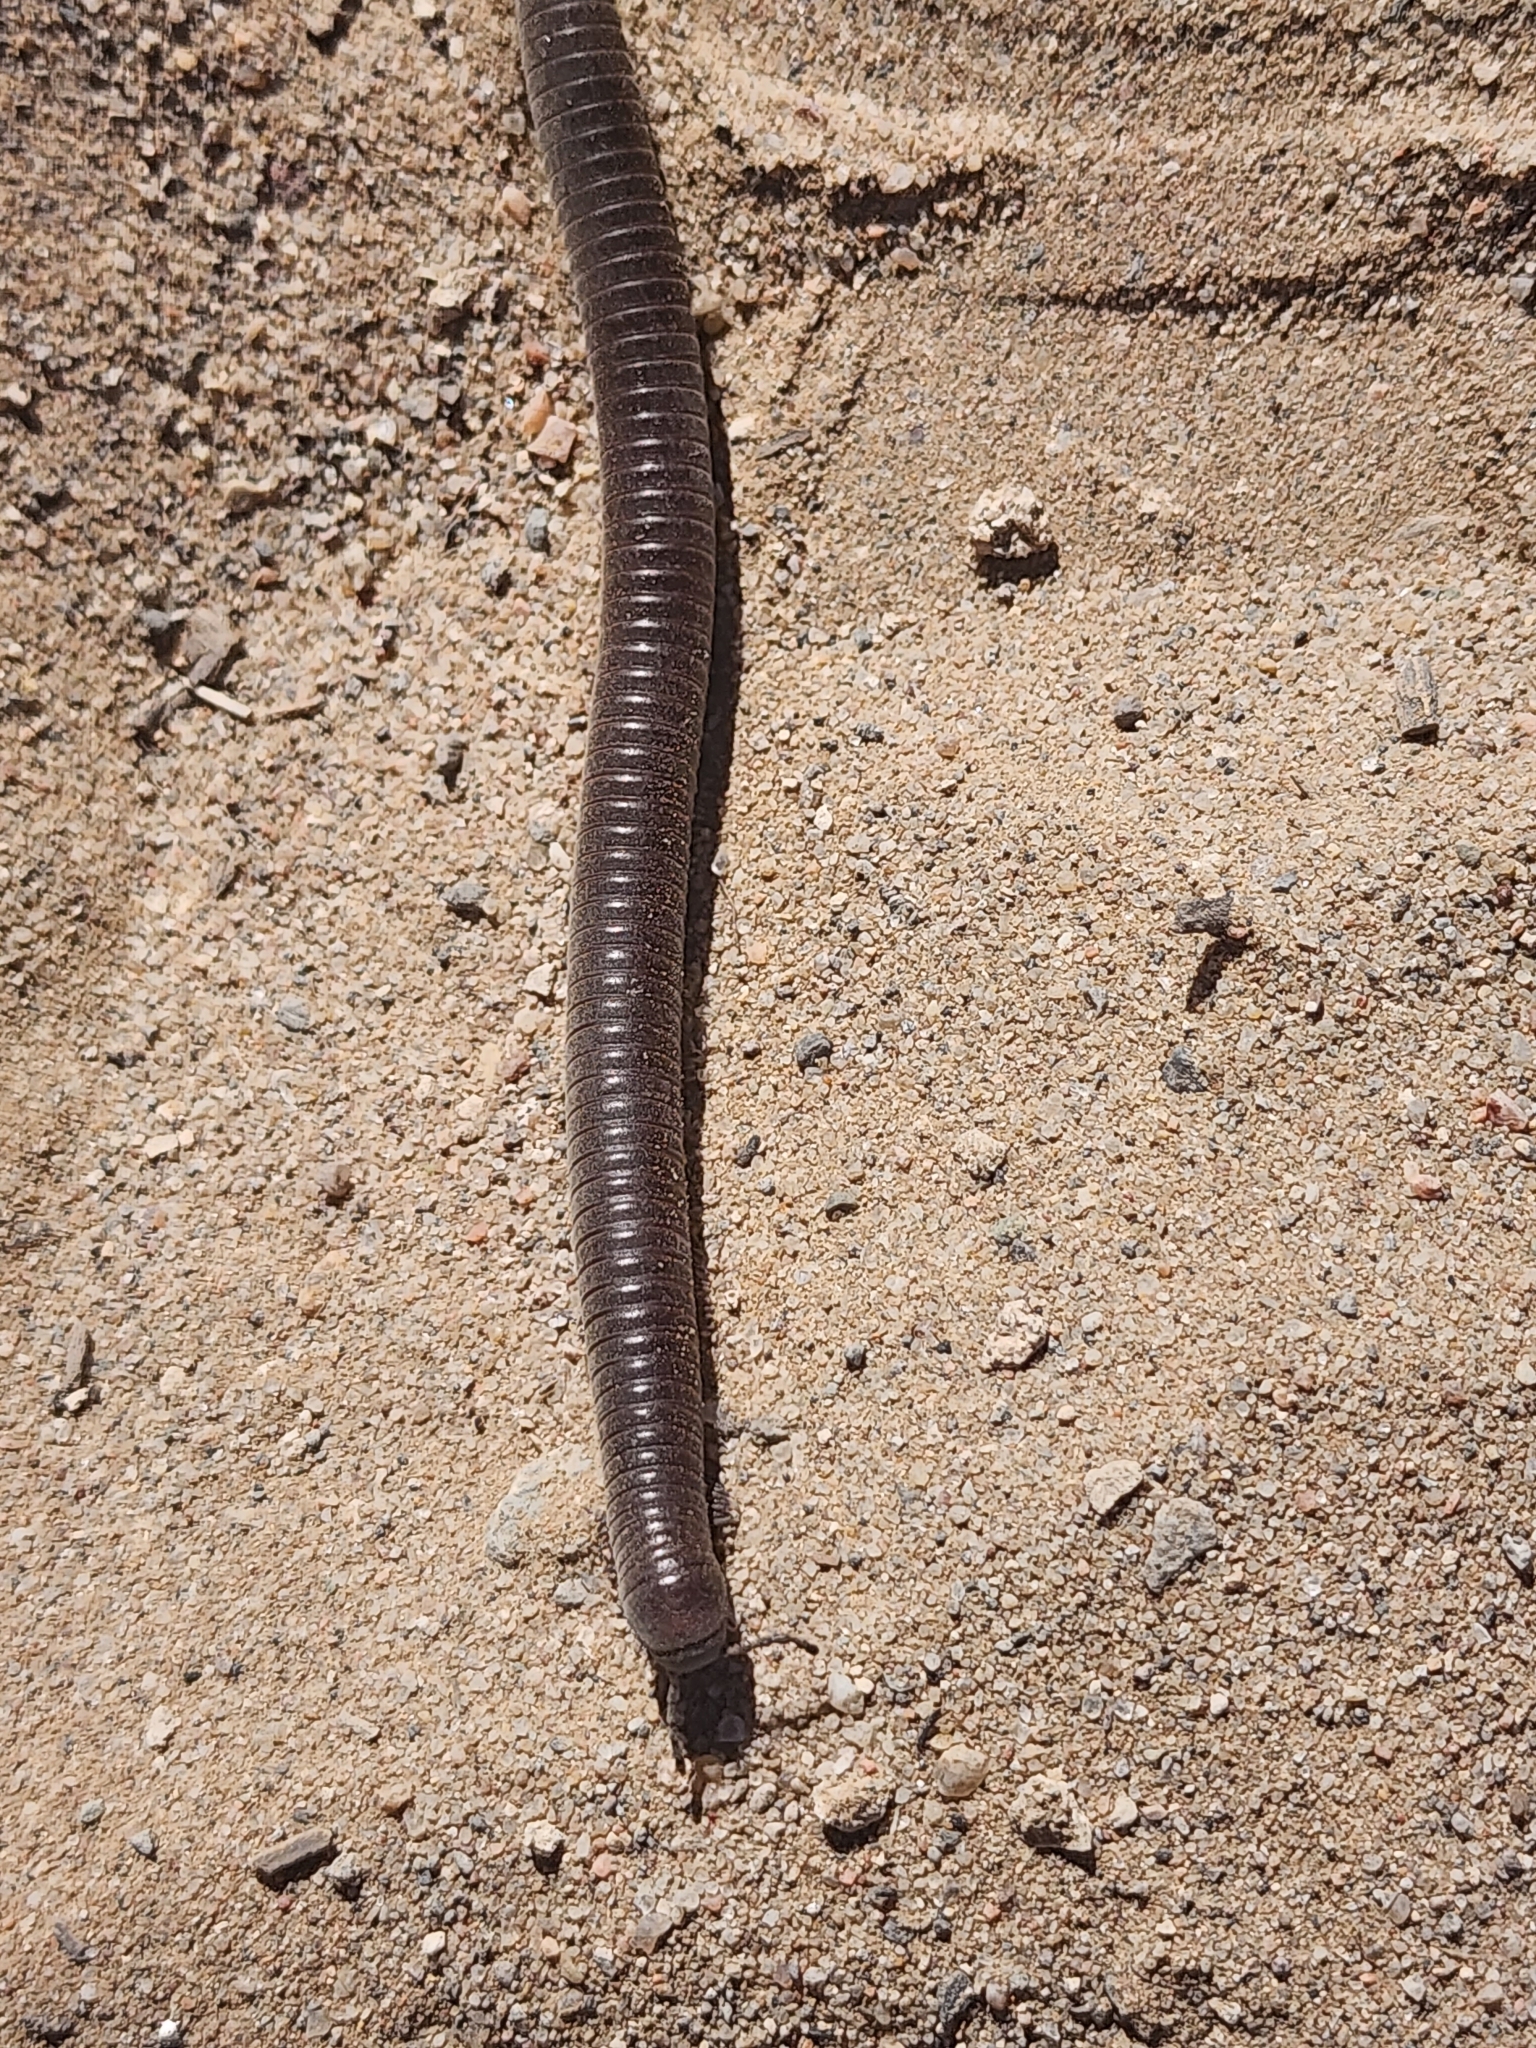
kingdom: Animalia
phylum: Arthropoda
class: Diplopoda
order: Spirostreptida
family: Spirostreptidae
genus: Orthoporus
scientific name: Orthoporus ornatus
